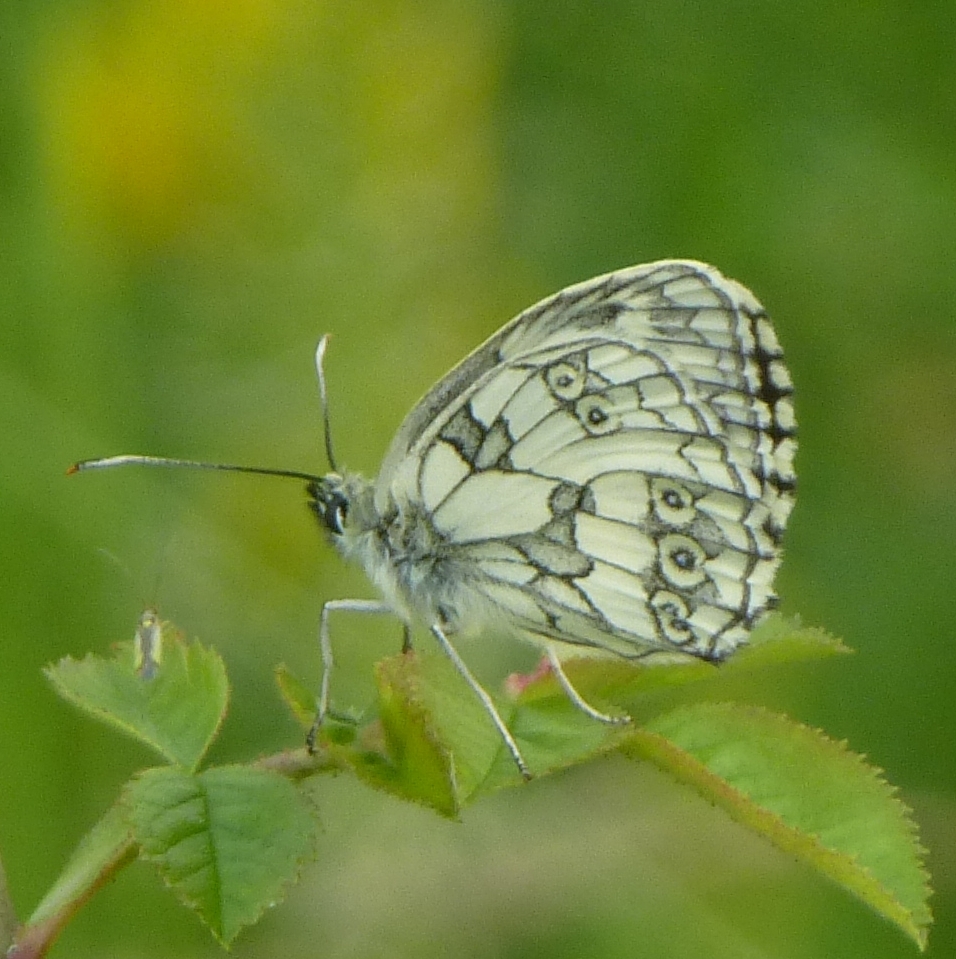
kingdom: Animalia
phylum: Arthropoda
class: Insecta
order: Lepidoptera
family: Nymphalidae
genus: Melanargia
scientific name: Melanargia galathea
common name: Marbled white
